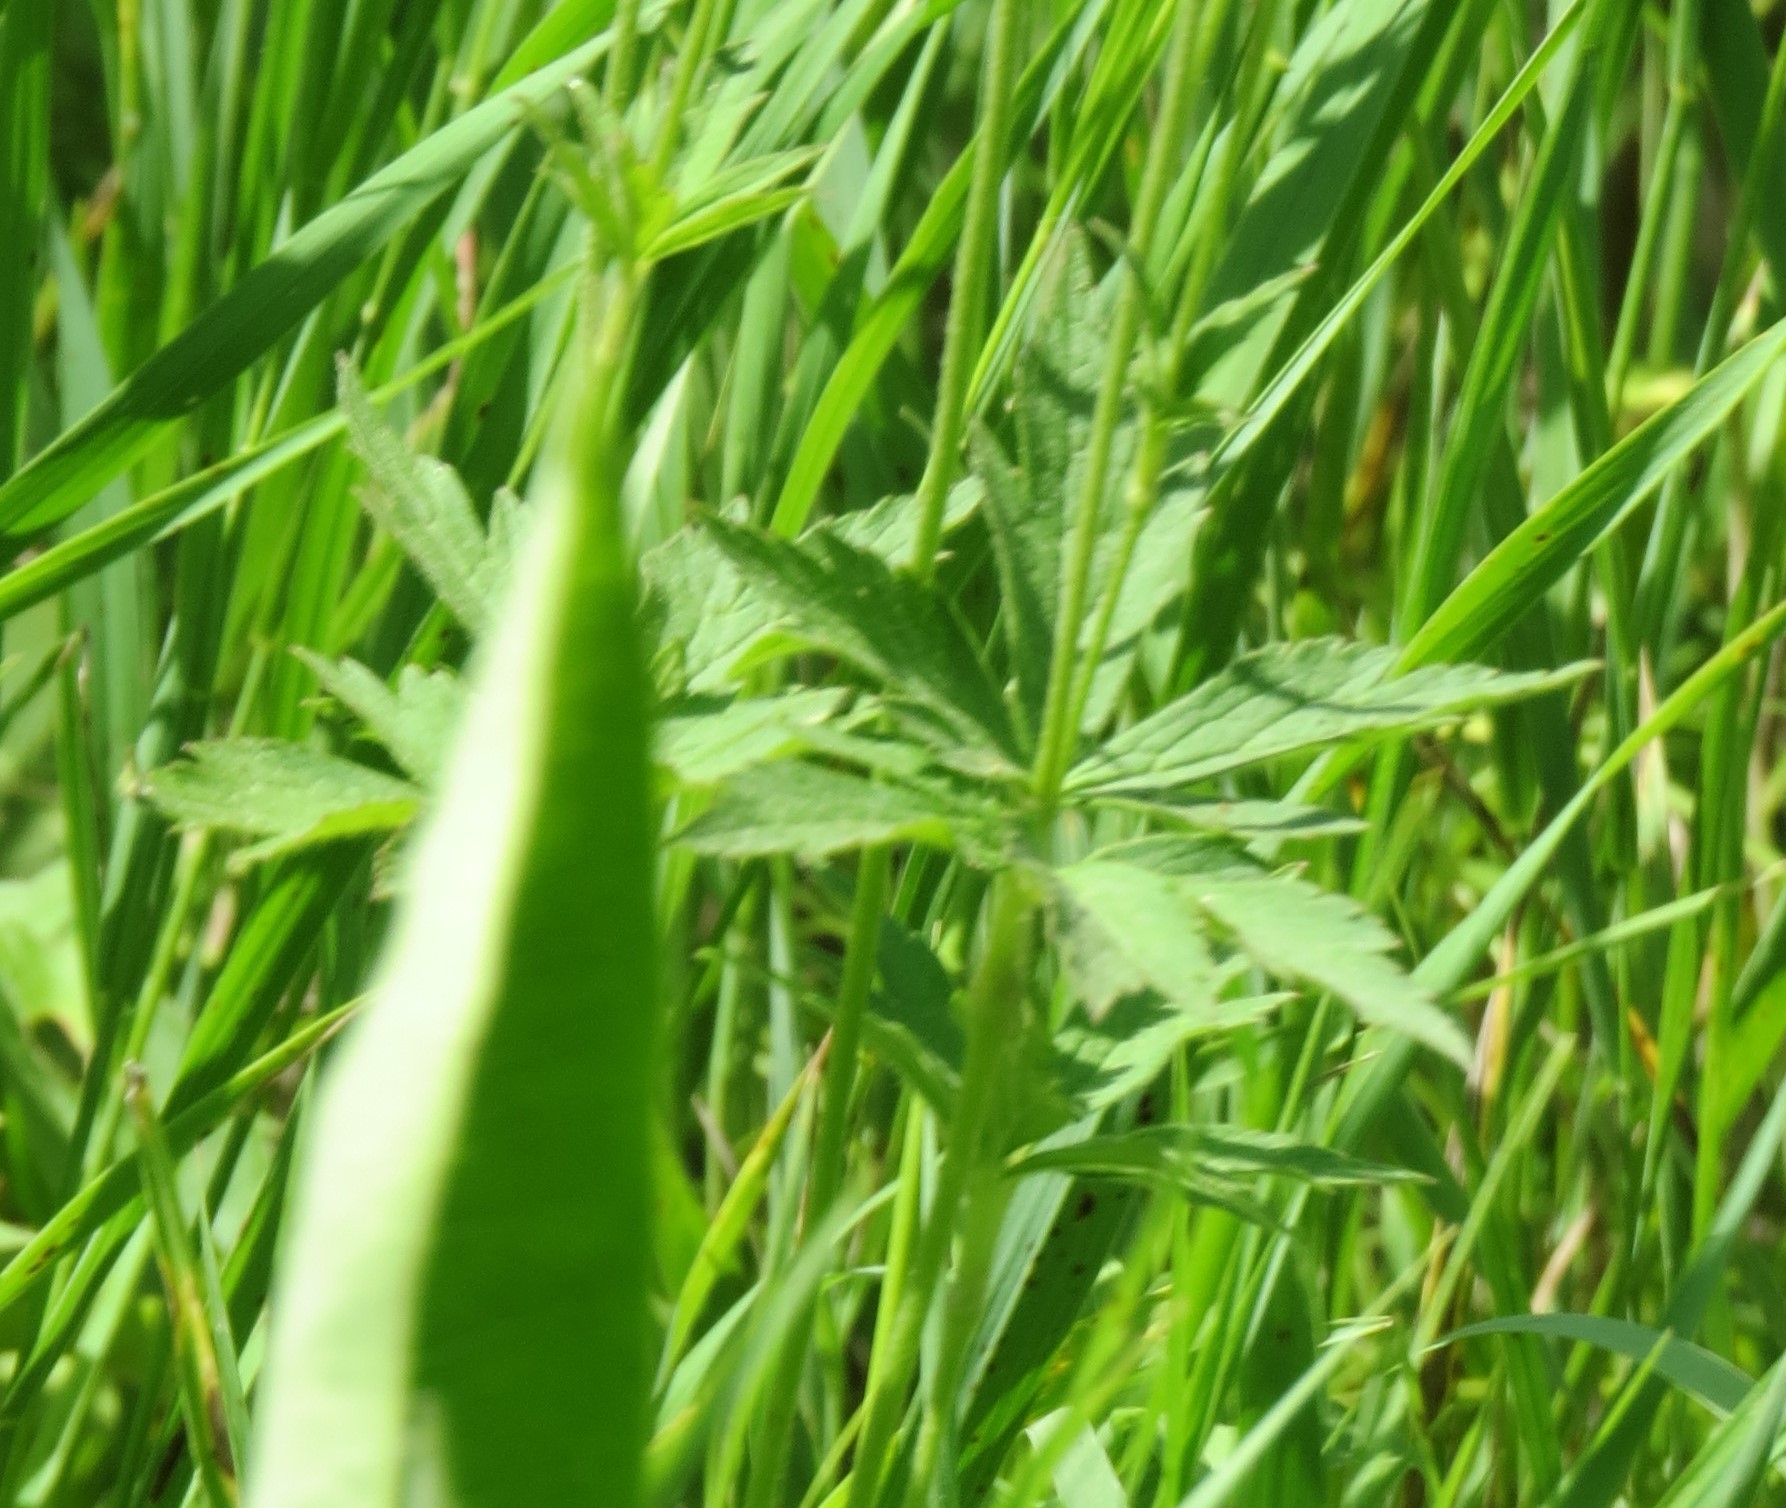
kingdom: Plantae
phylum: Tracheophyta
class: Magnoliopsida
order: Ranunculales
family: Ranunculaceae
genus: Anemone
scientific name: Anemone virginiana
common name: Tall anemone
